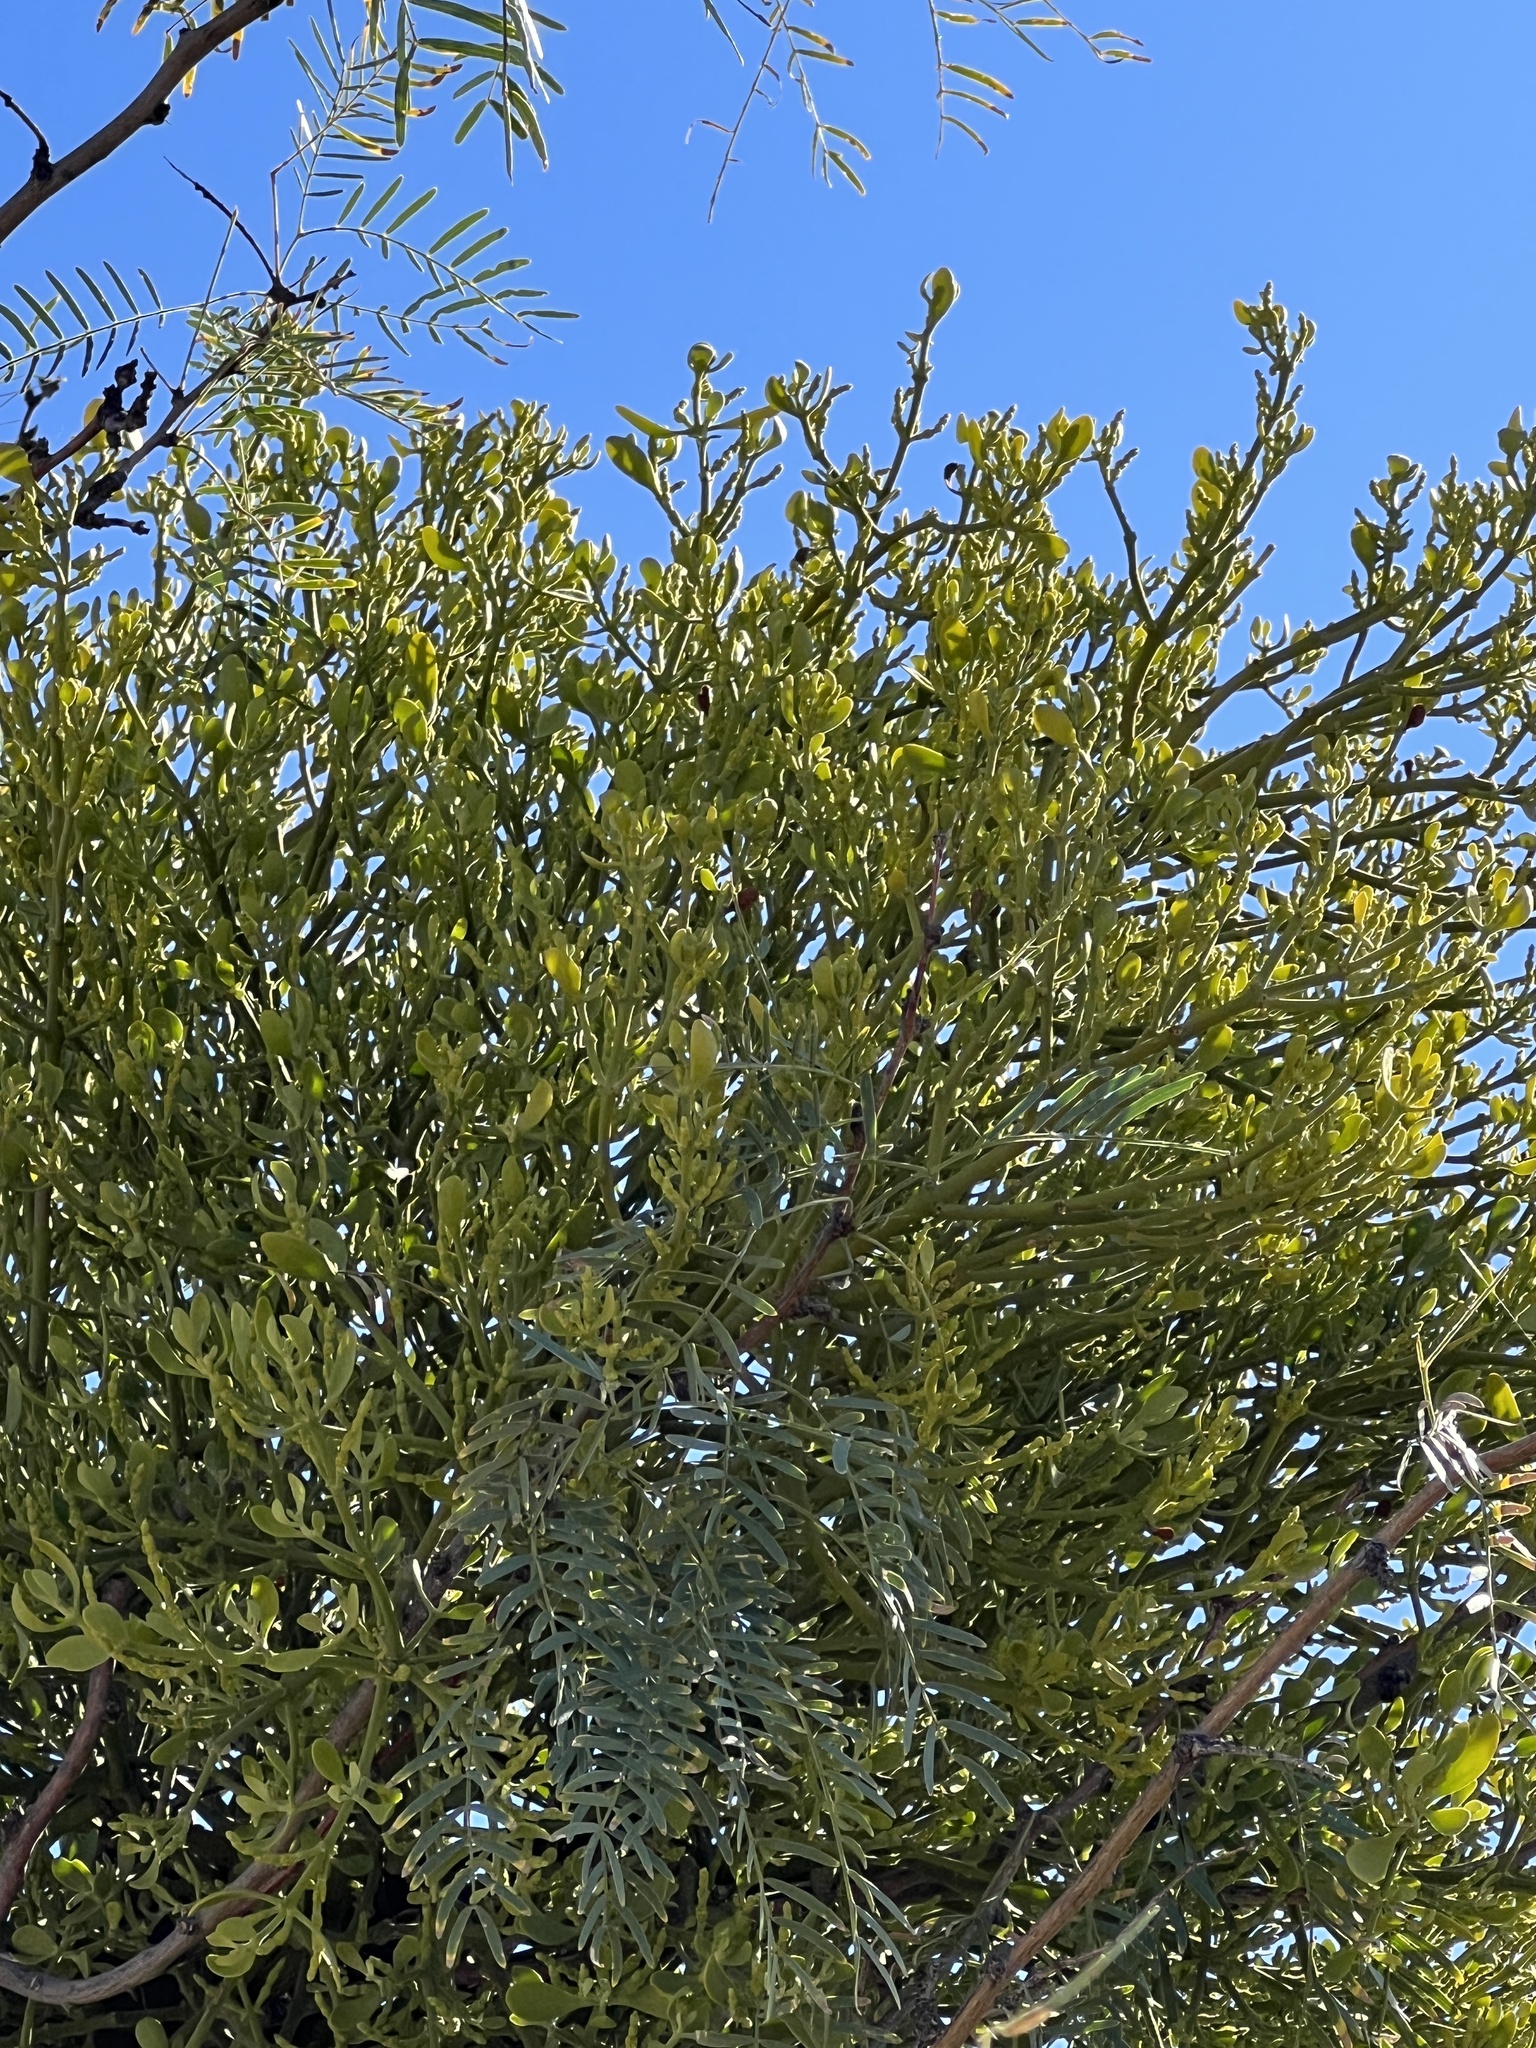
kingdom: Plantae
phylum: Tracheophyta
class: Magnoliopsida
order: Santalales
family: Viscaceae
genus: Phoradendron
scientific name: Phoradendron bolleanum
